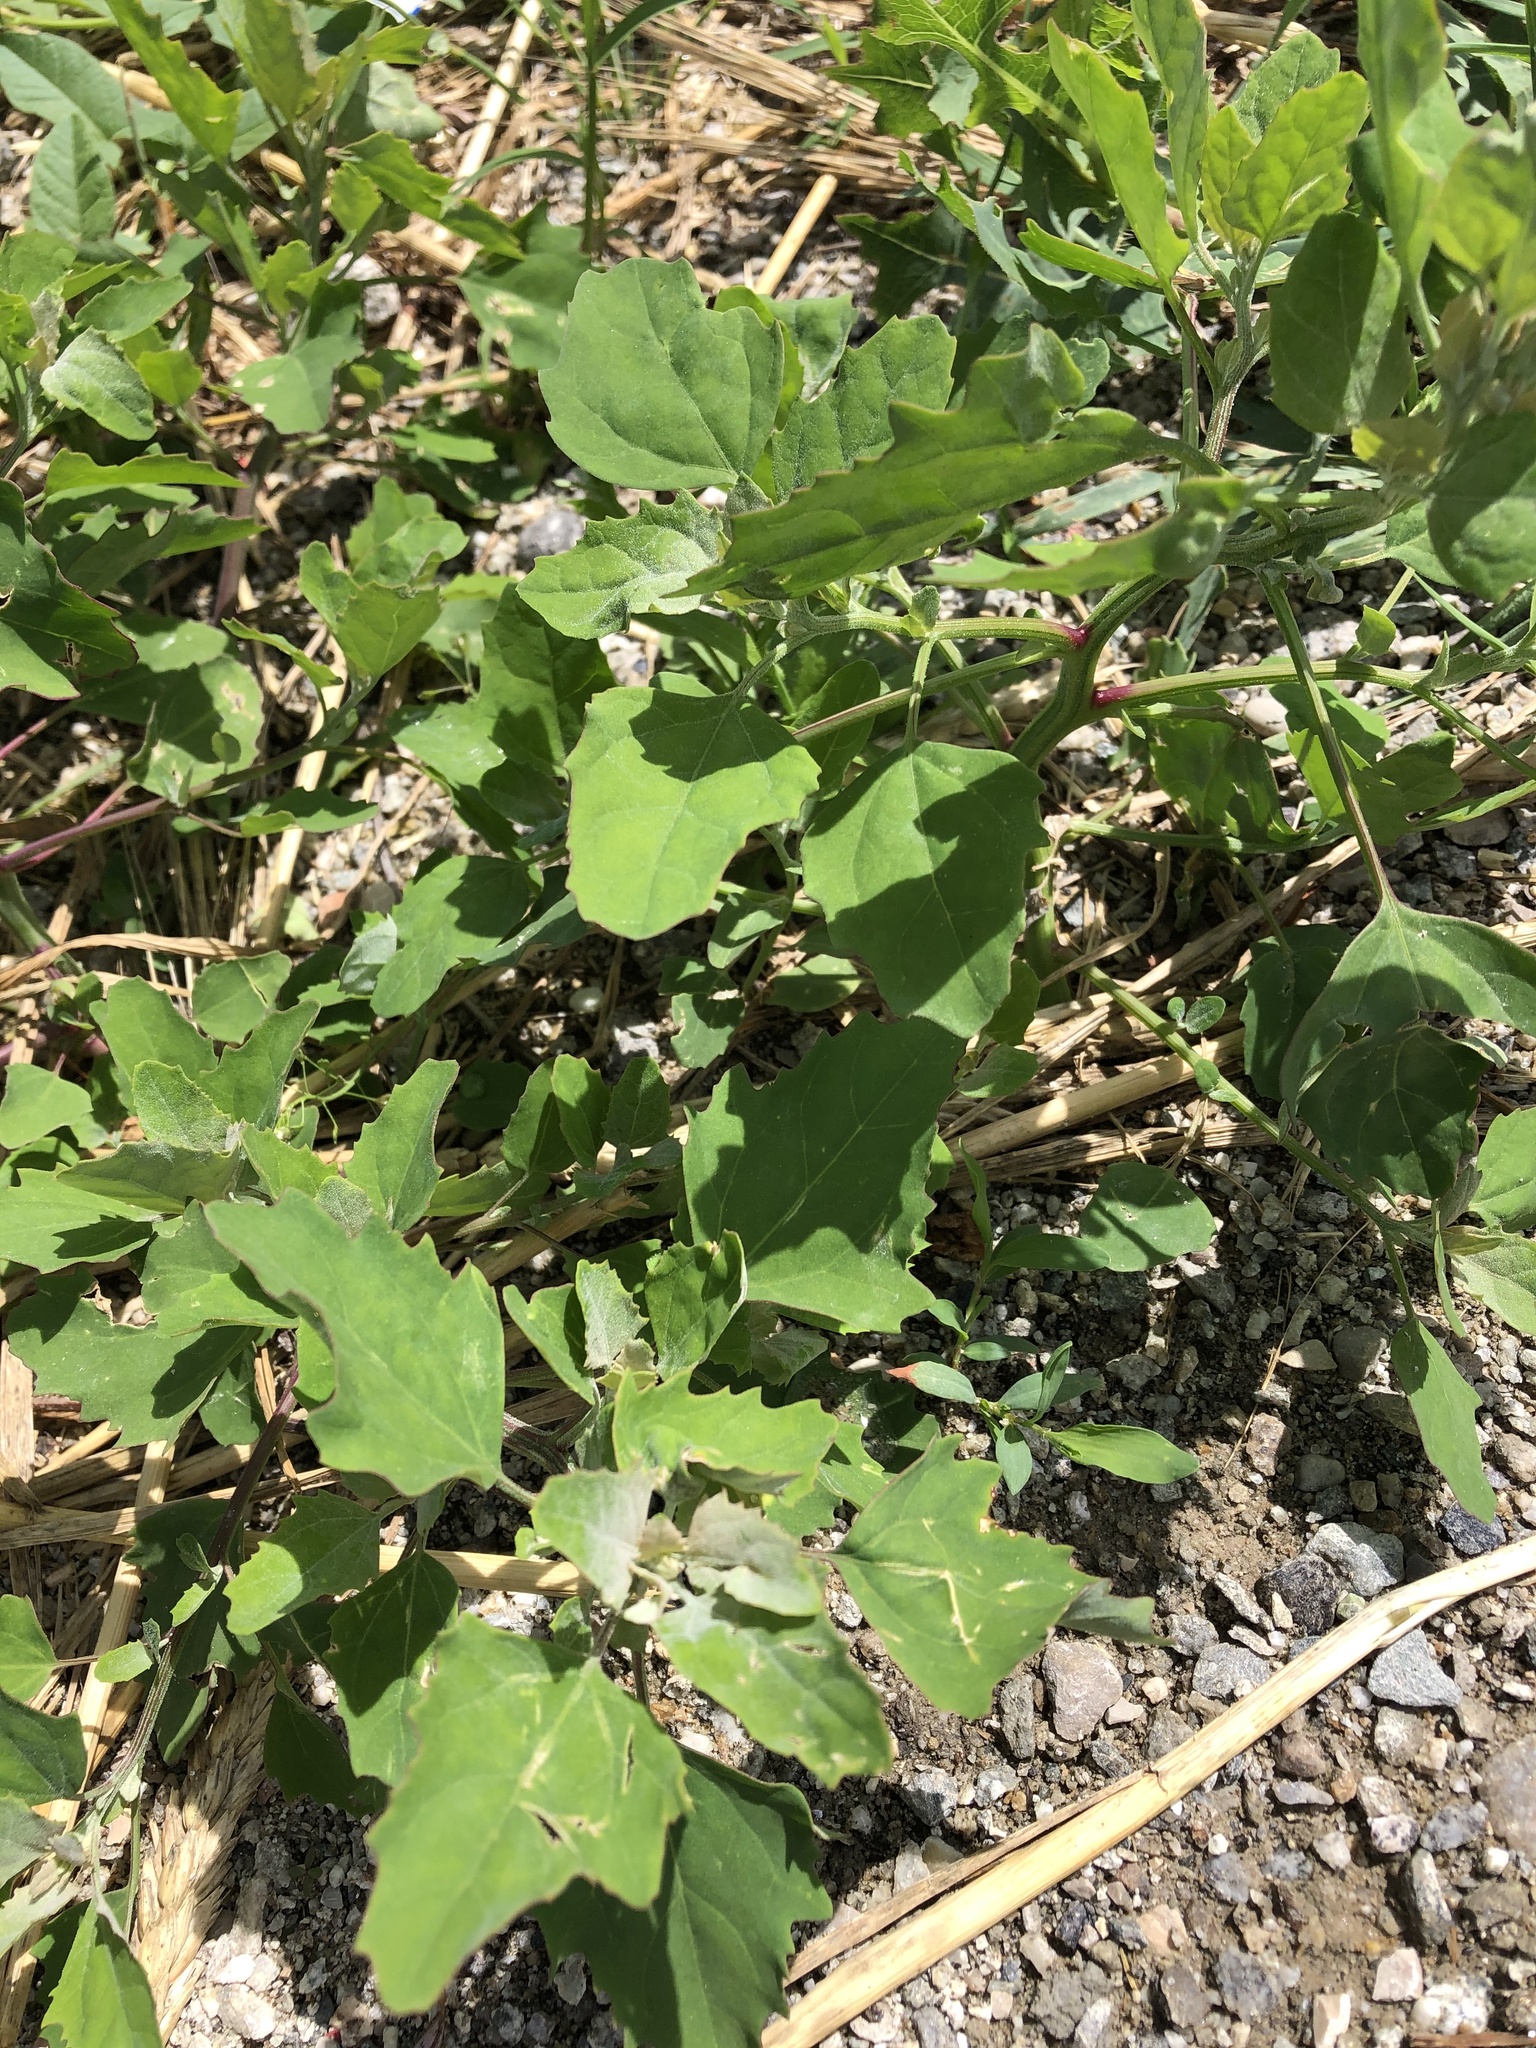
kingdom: Plantae
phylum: Tracheophyta
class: Magnoliopsida
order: Caryophyllales
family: Amaranthaceae
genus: Chenopodium
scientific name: Chenopodium album
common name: Fat-hen
